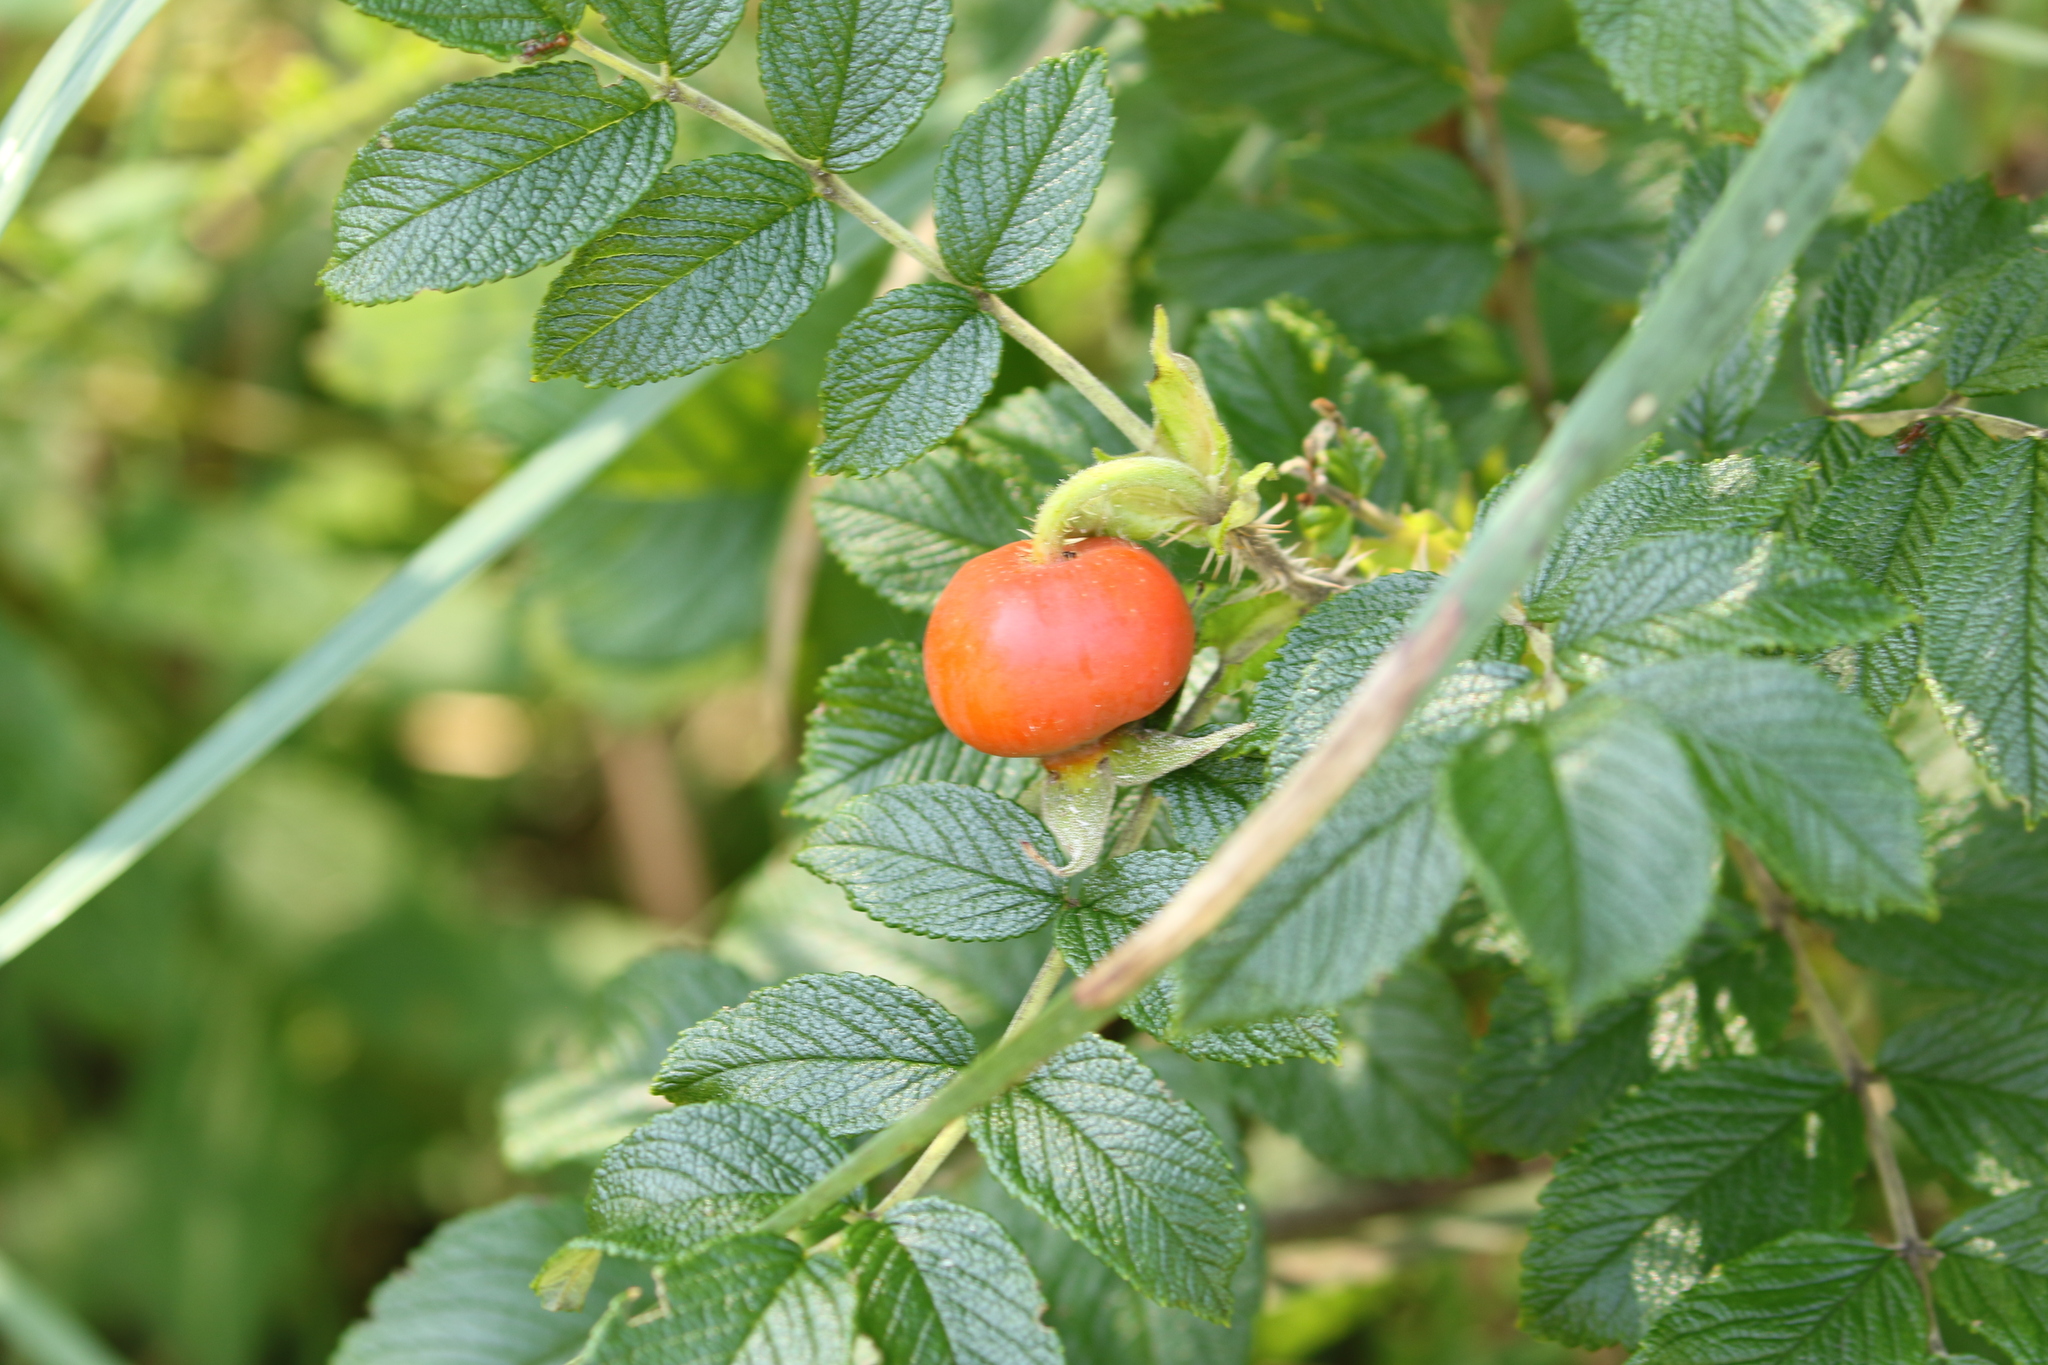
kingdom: Plantae
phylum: Tracheophyta
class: Magnoliopsida
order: Rosales
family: Rosaceae
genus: Rosa
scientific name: Rosa rugosa
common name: Japanese rose
